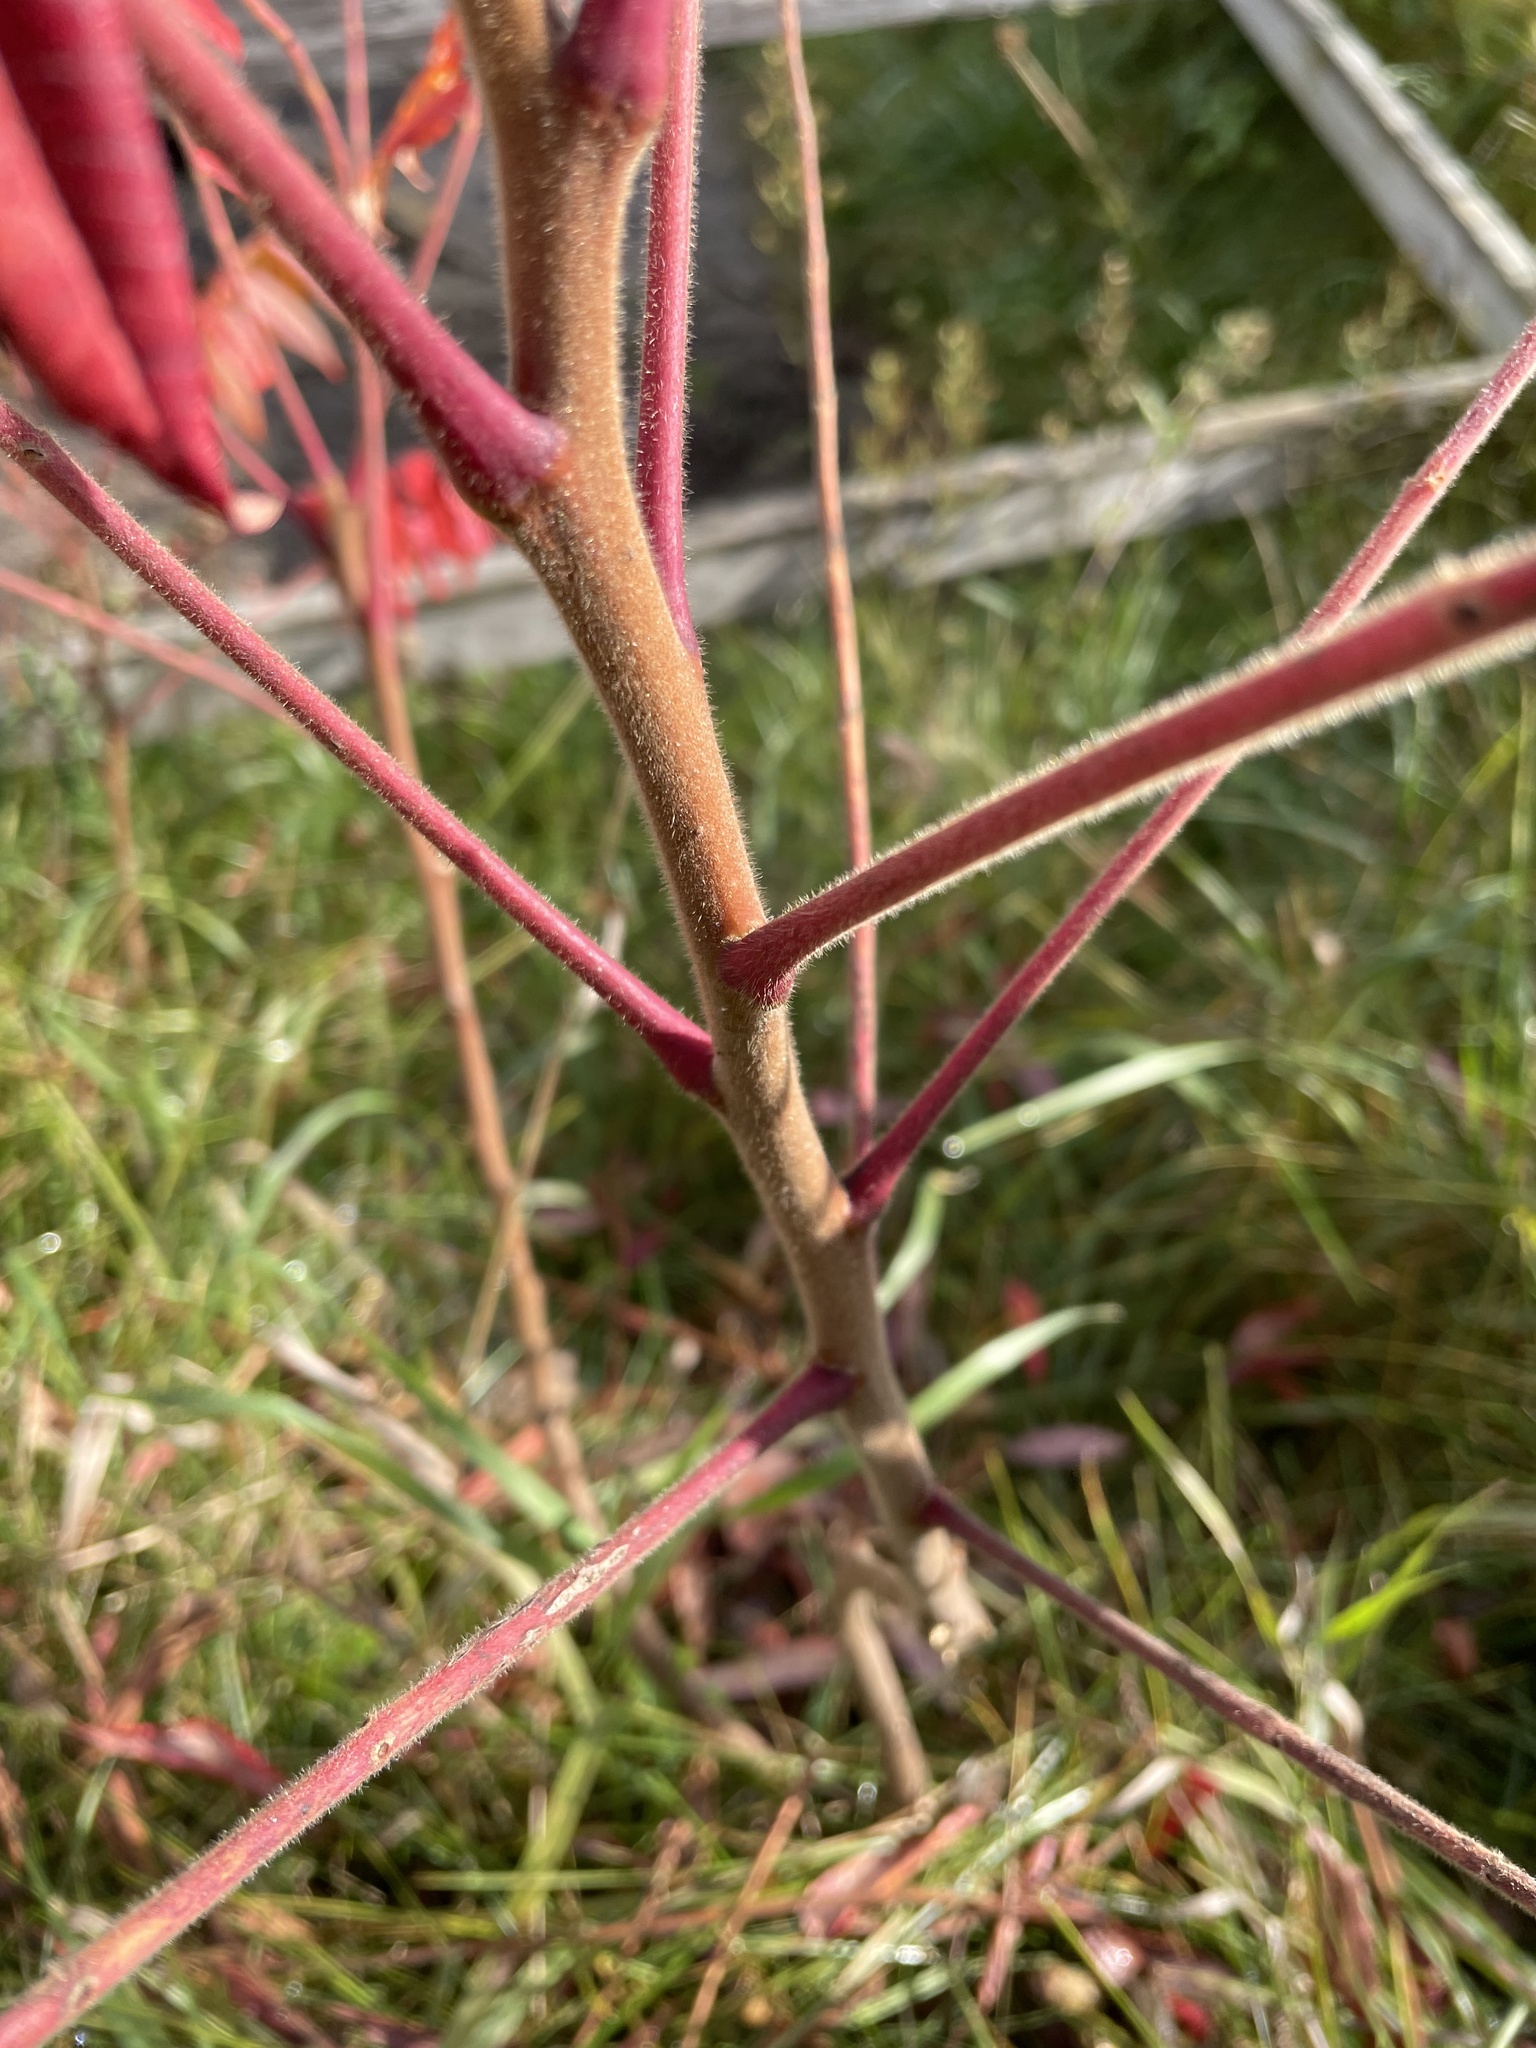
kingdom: Plantae
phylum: Tracheophyta
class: Magnoliopsida
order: Sapindales
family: Anacardiaceae
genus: Rhus
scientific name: Rhus typhina
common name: Staghorn sumac
